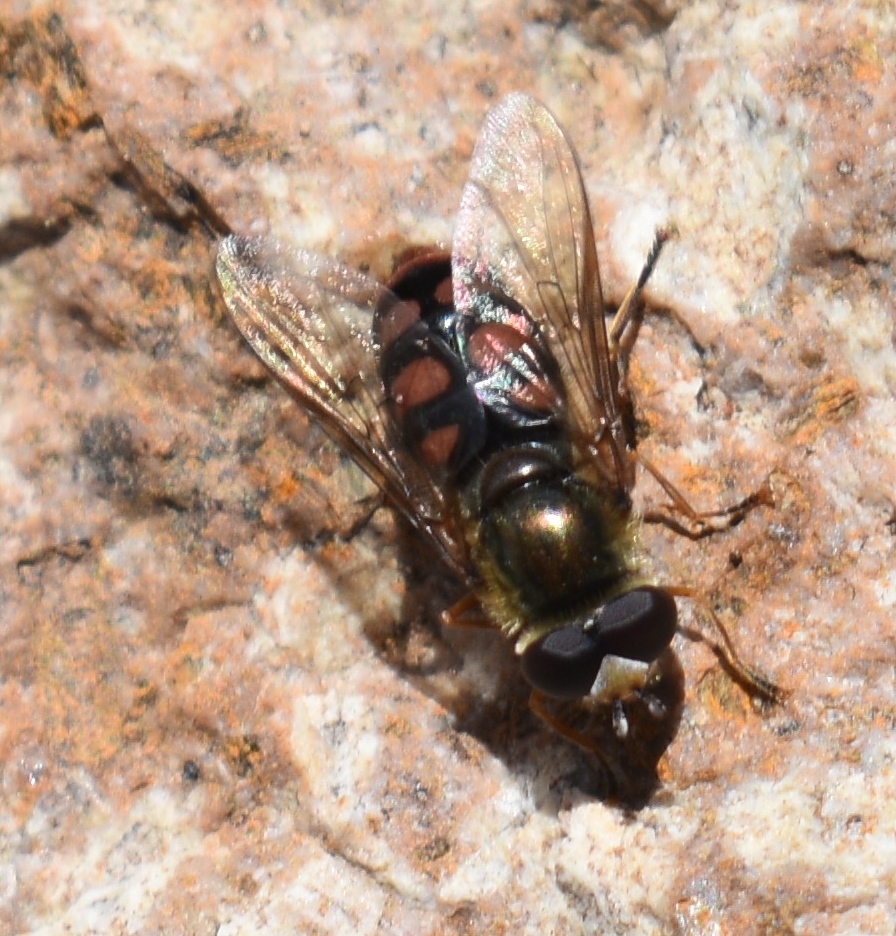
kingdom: Animalia
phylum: Arthropoda
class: Insecta
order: Diptera
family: Syrphidae
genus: Eupeodes
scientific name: Eupeodes flukei
